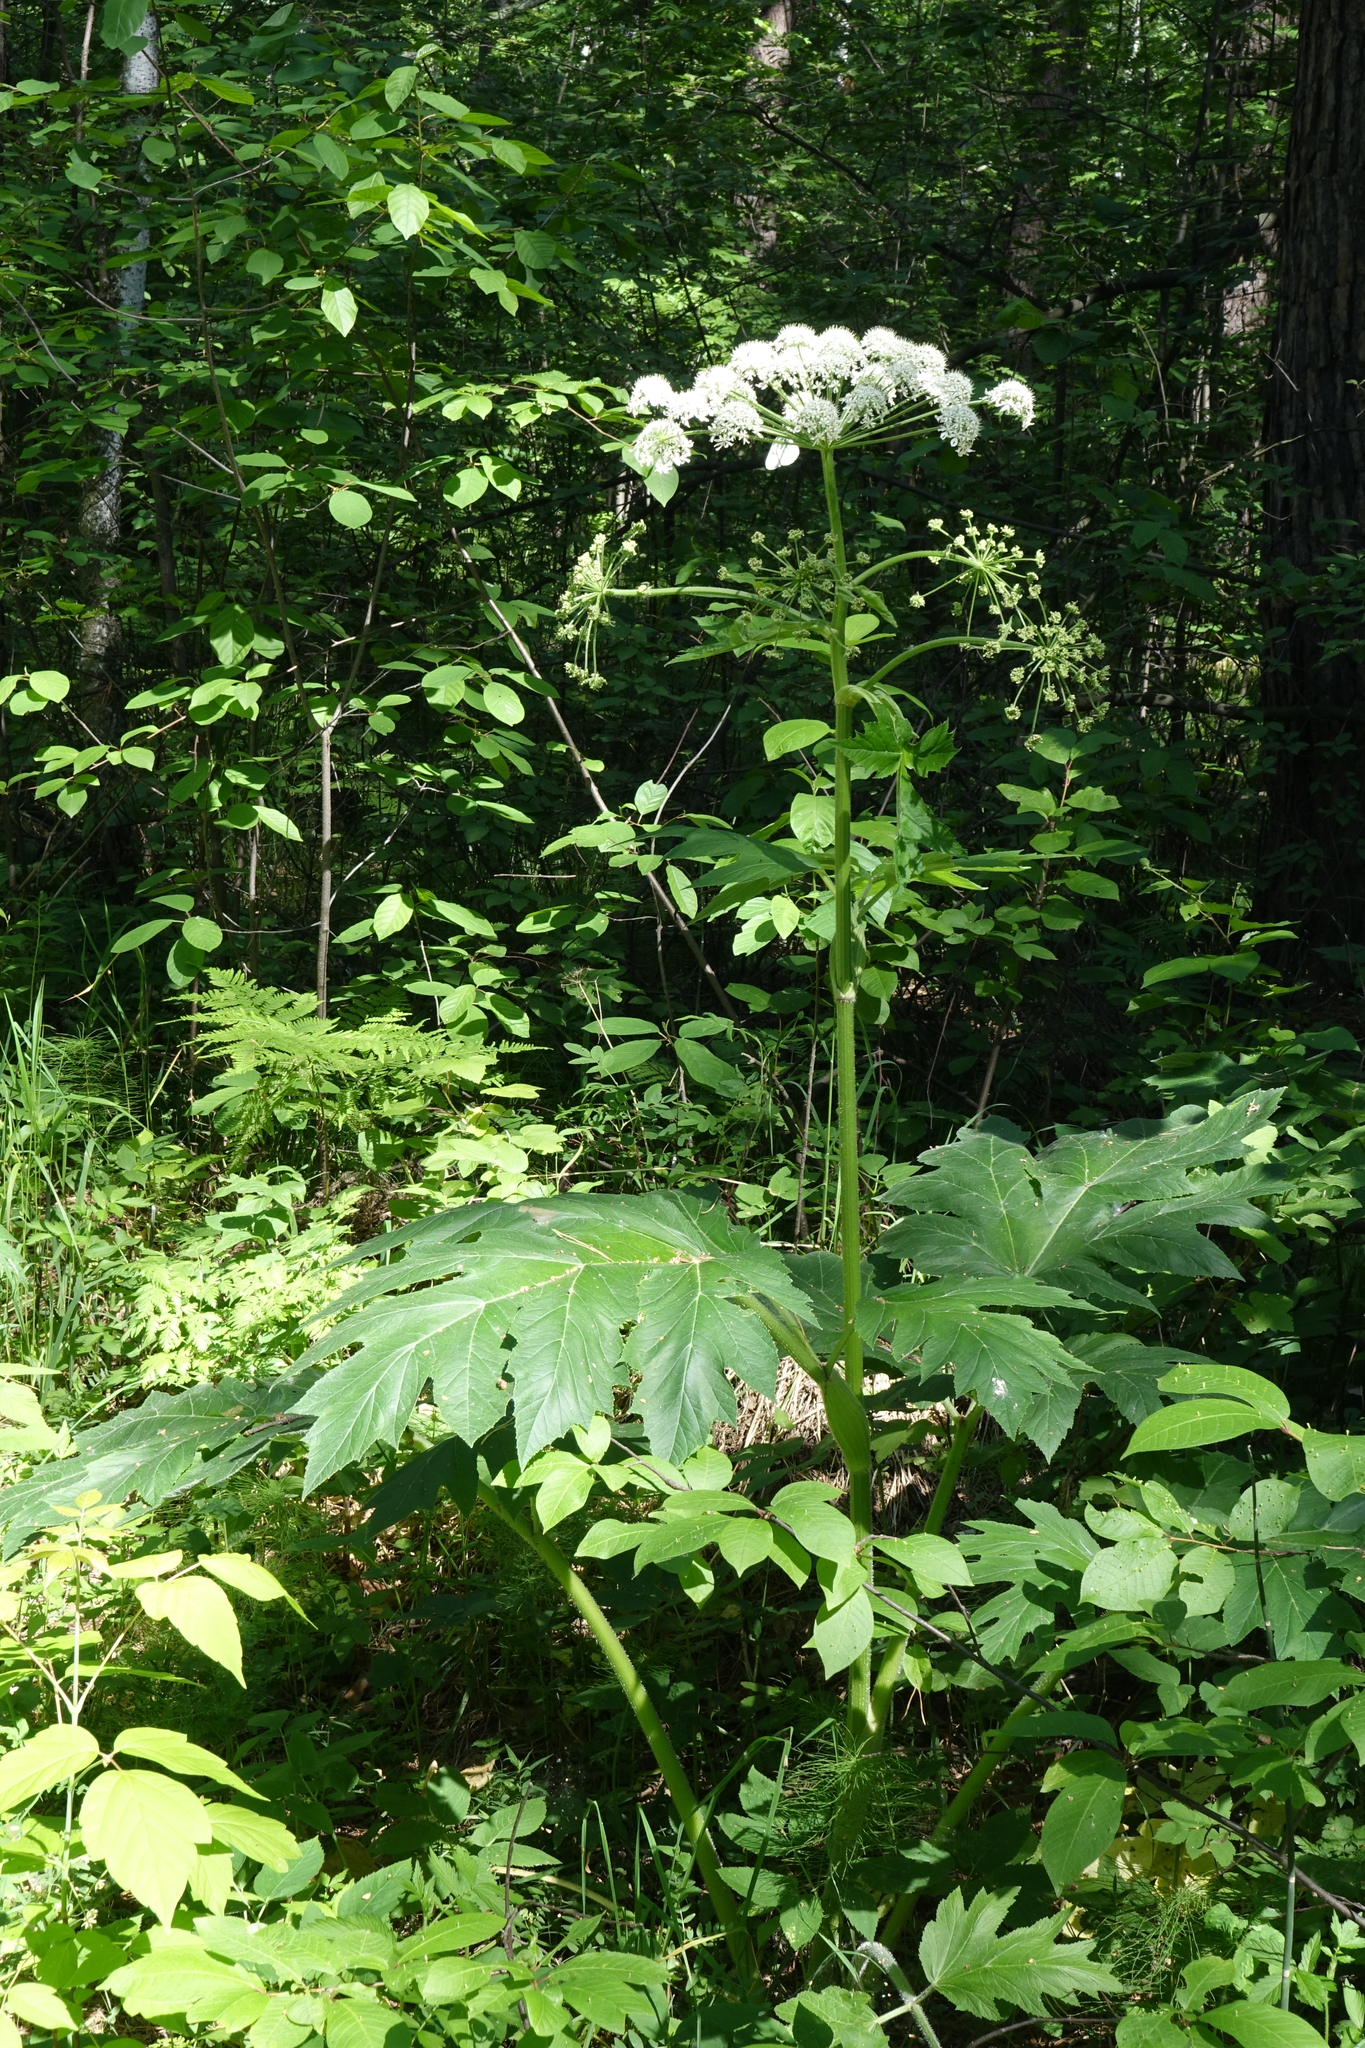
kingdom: Plantae
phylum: Tracheophyta
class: Magnoliopsida
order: Apiales
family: Apiaceae
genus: Heracleum
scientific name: Heracleum dissectum
